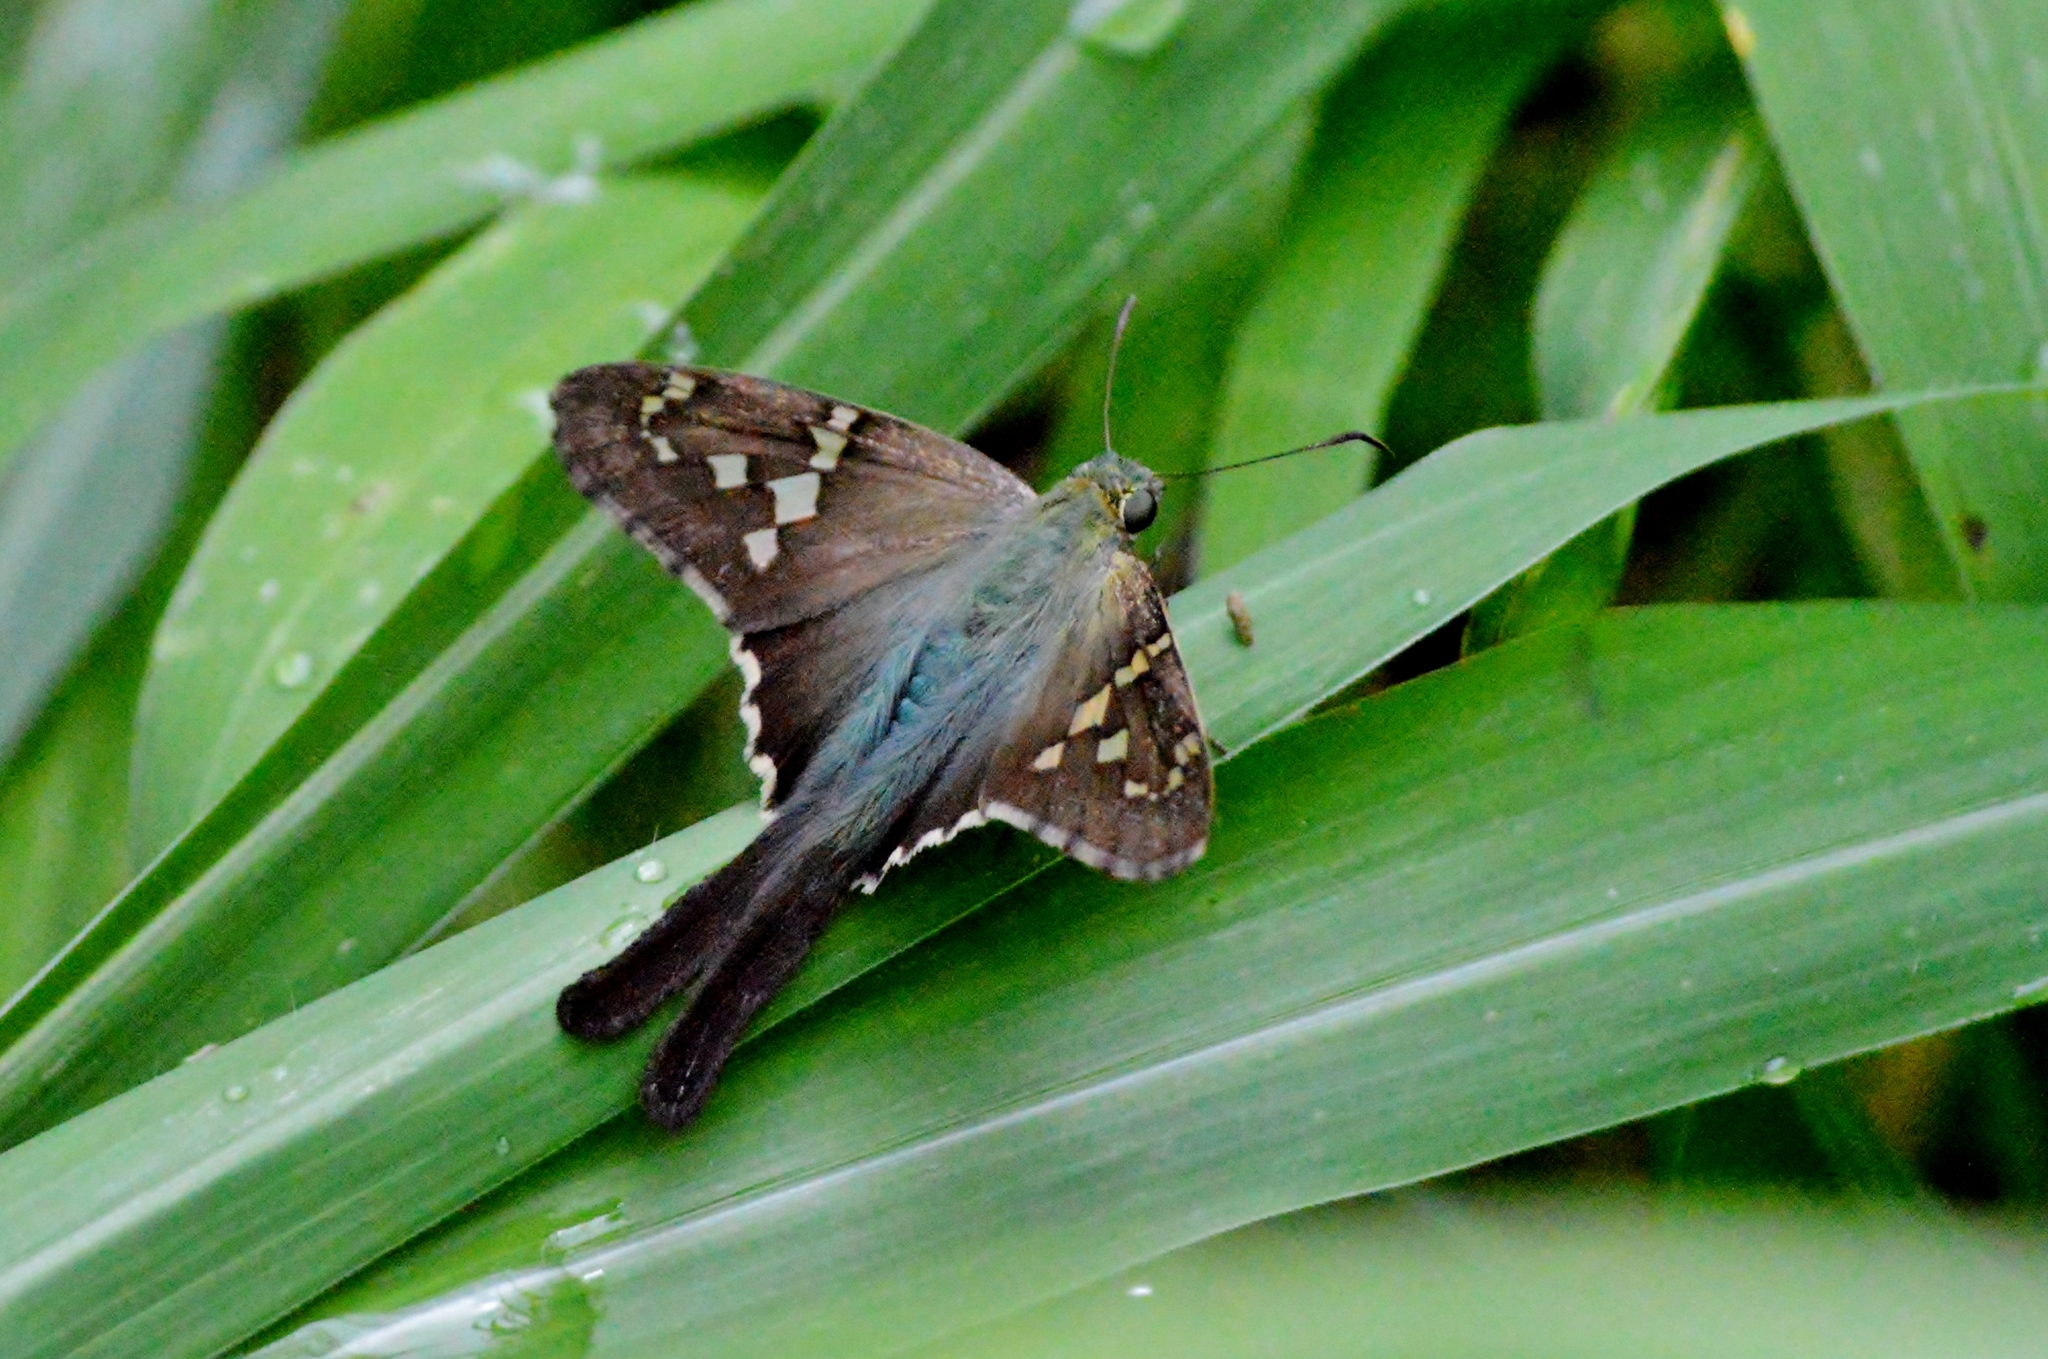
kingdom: Animalia
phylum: Arthropoda
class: Insecta
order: Lepidoptera
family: Hesperiidae
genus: Urbanus
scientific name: Urbanus proteus
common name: Long-tailed skipper
